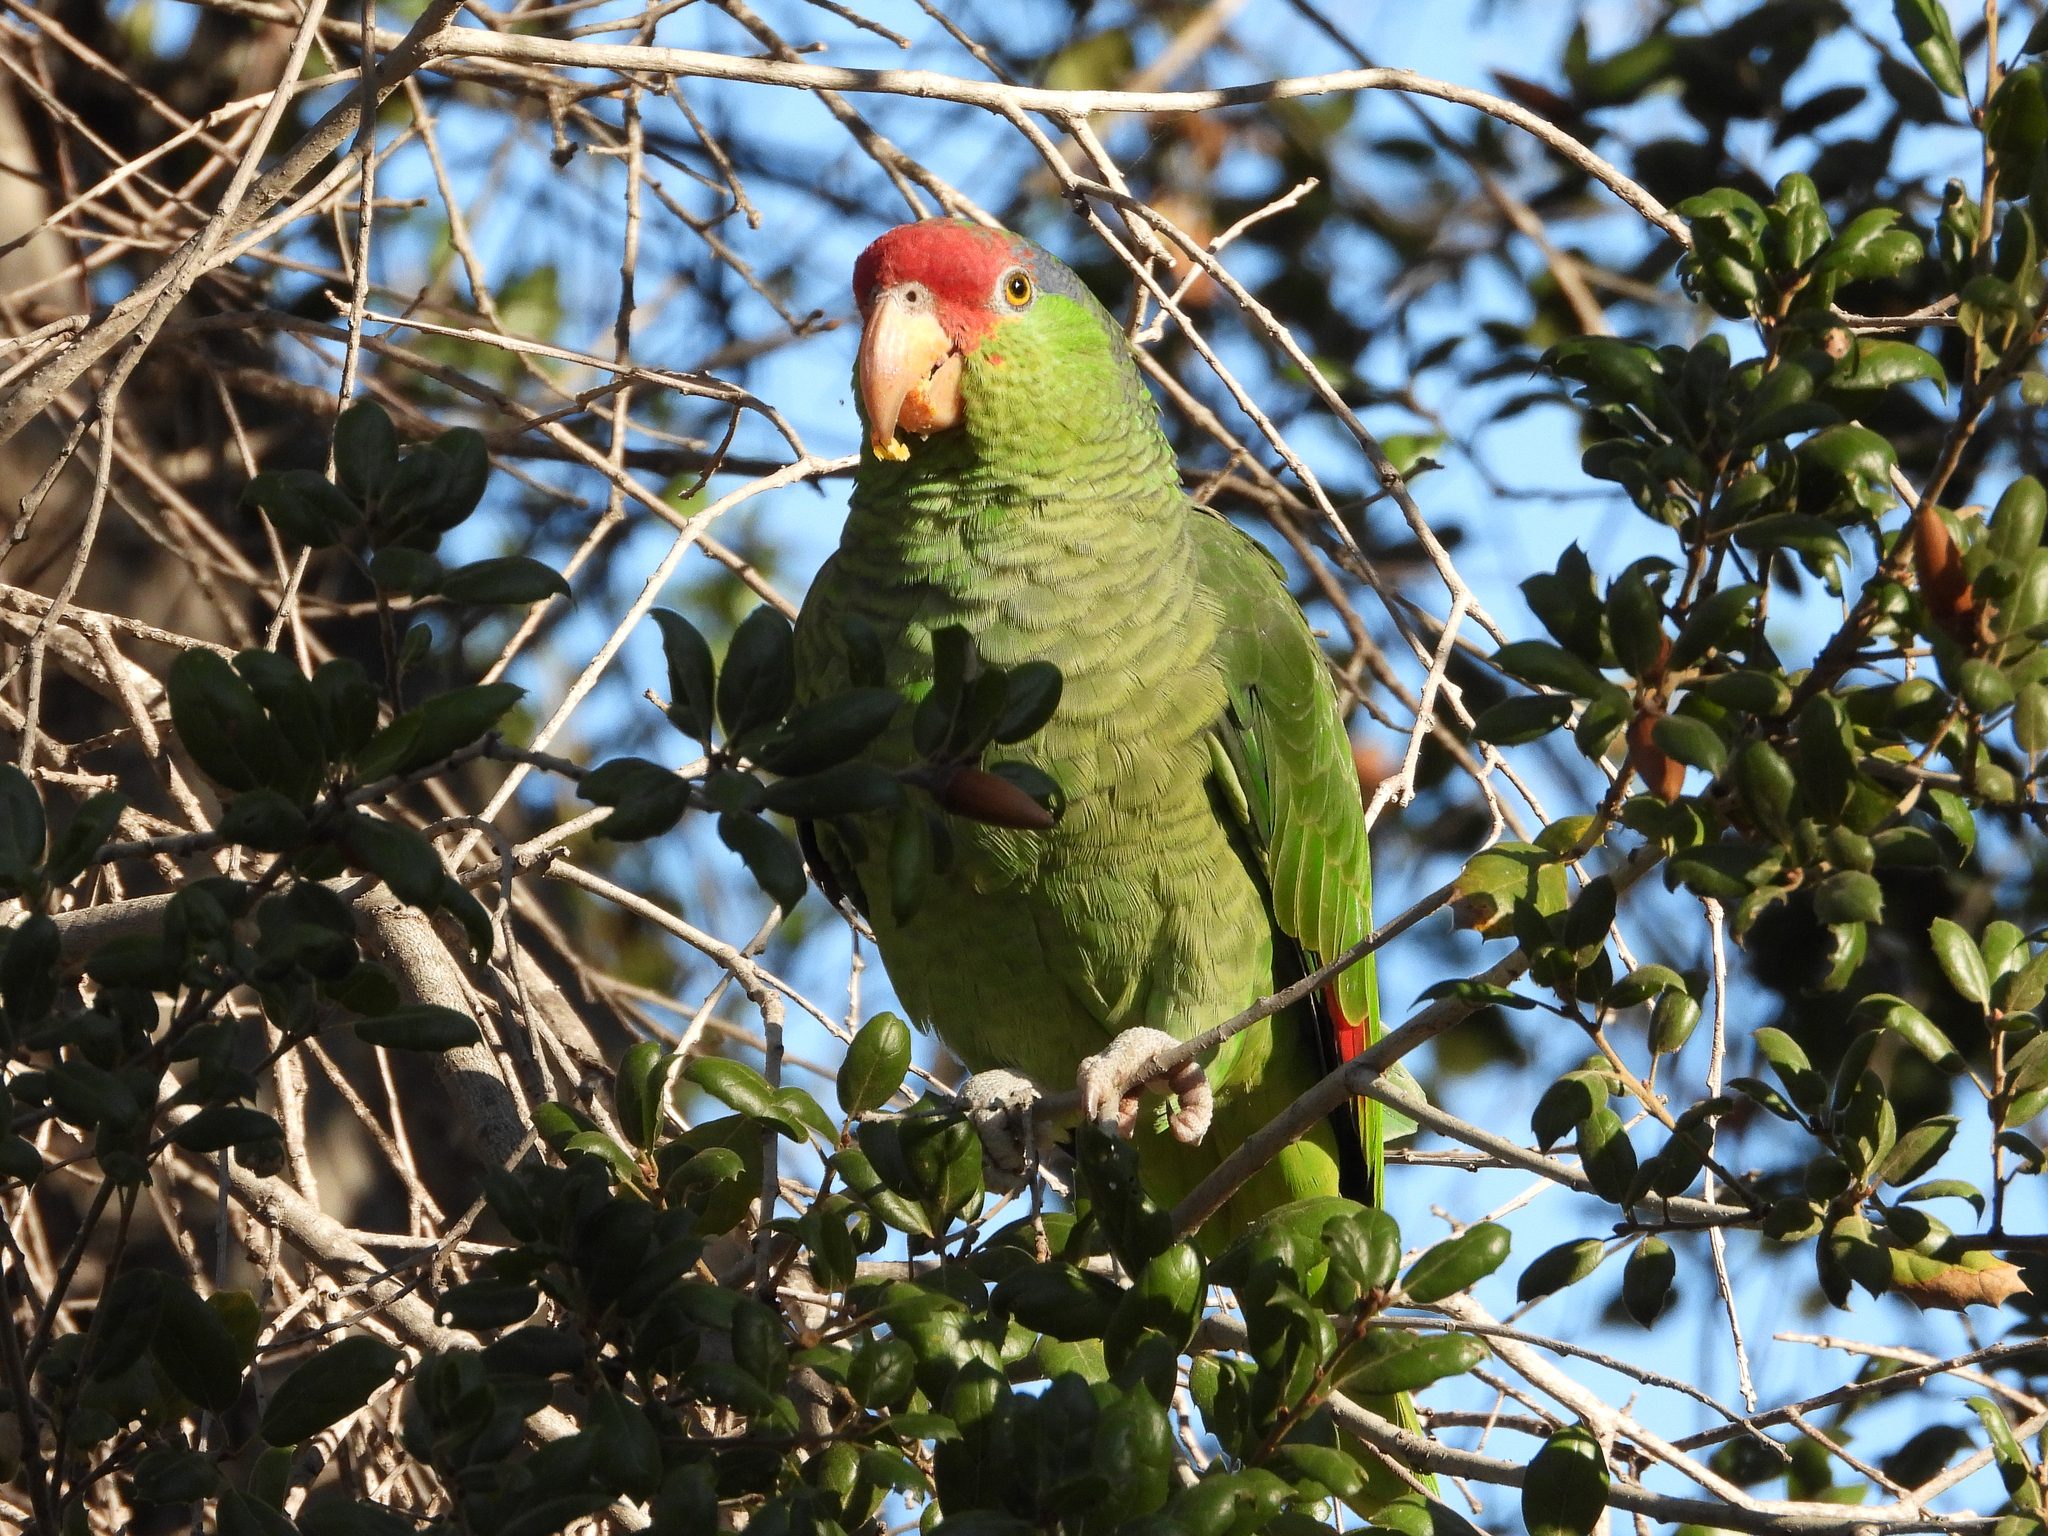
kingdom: Animalia
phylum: Chordata
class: Aves
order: Psittaciformes
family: Psittacidae
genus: Amazona
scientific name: Amazona viridigenalis
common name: Red-crowned amazon
